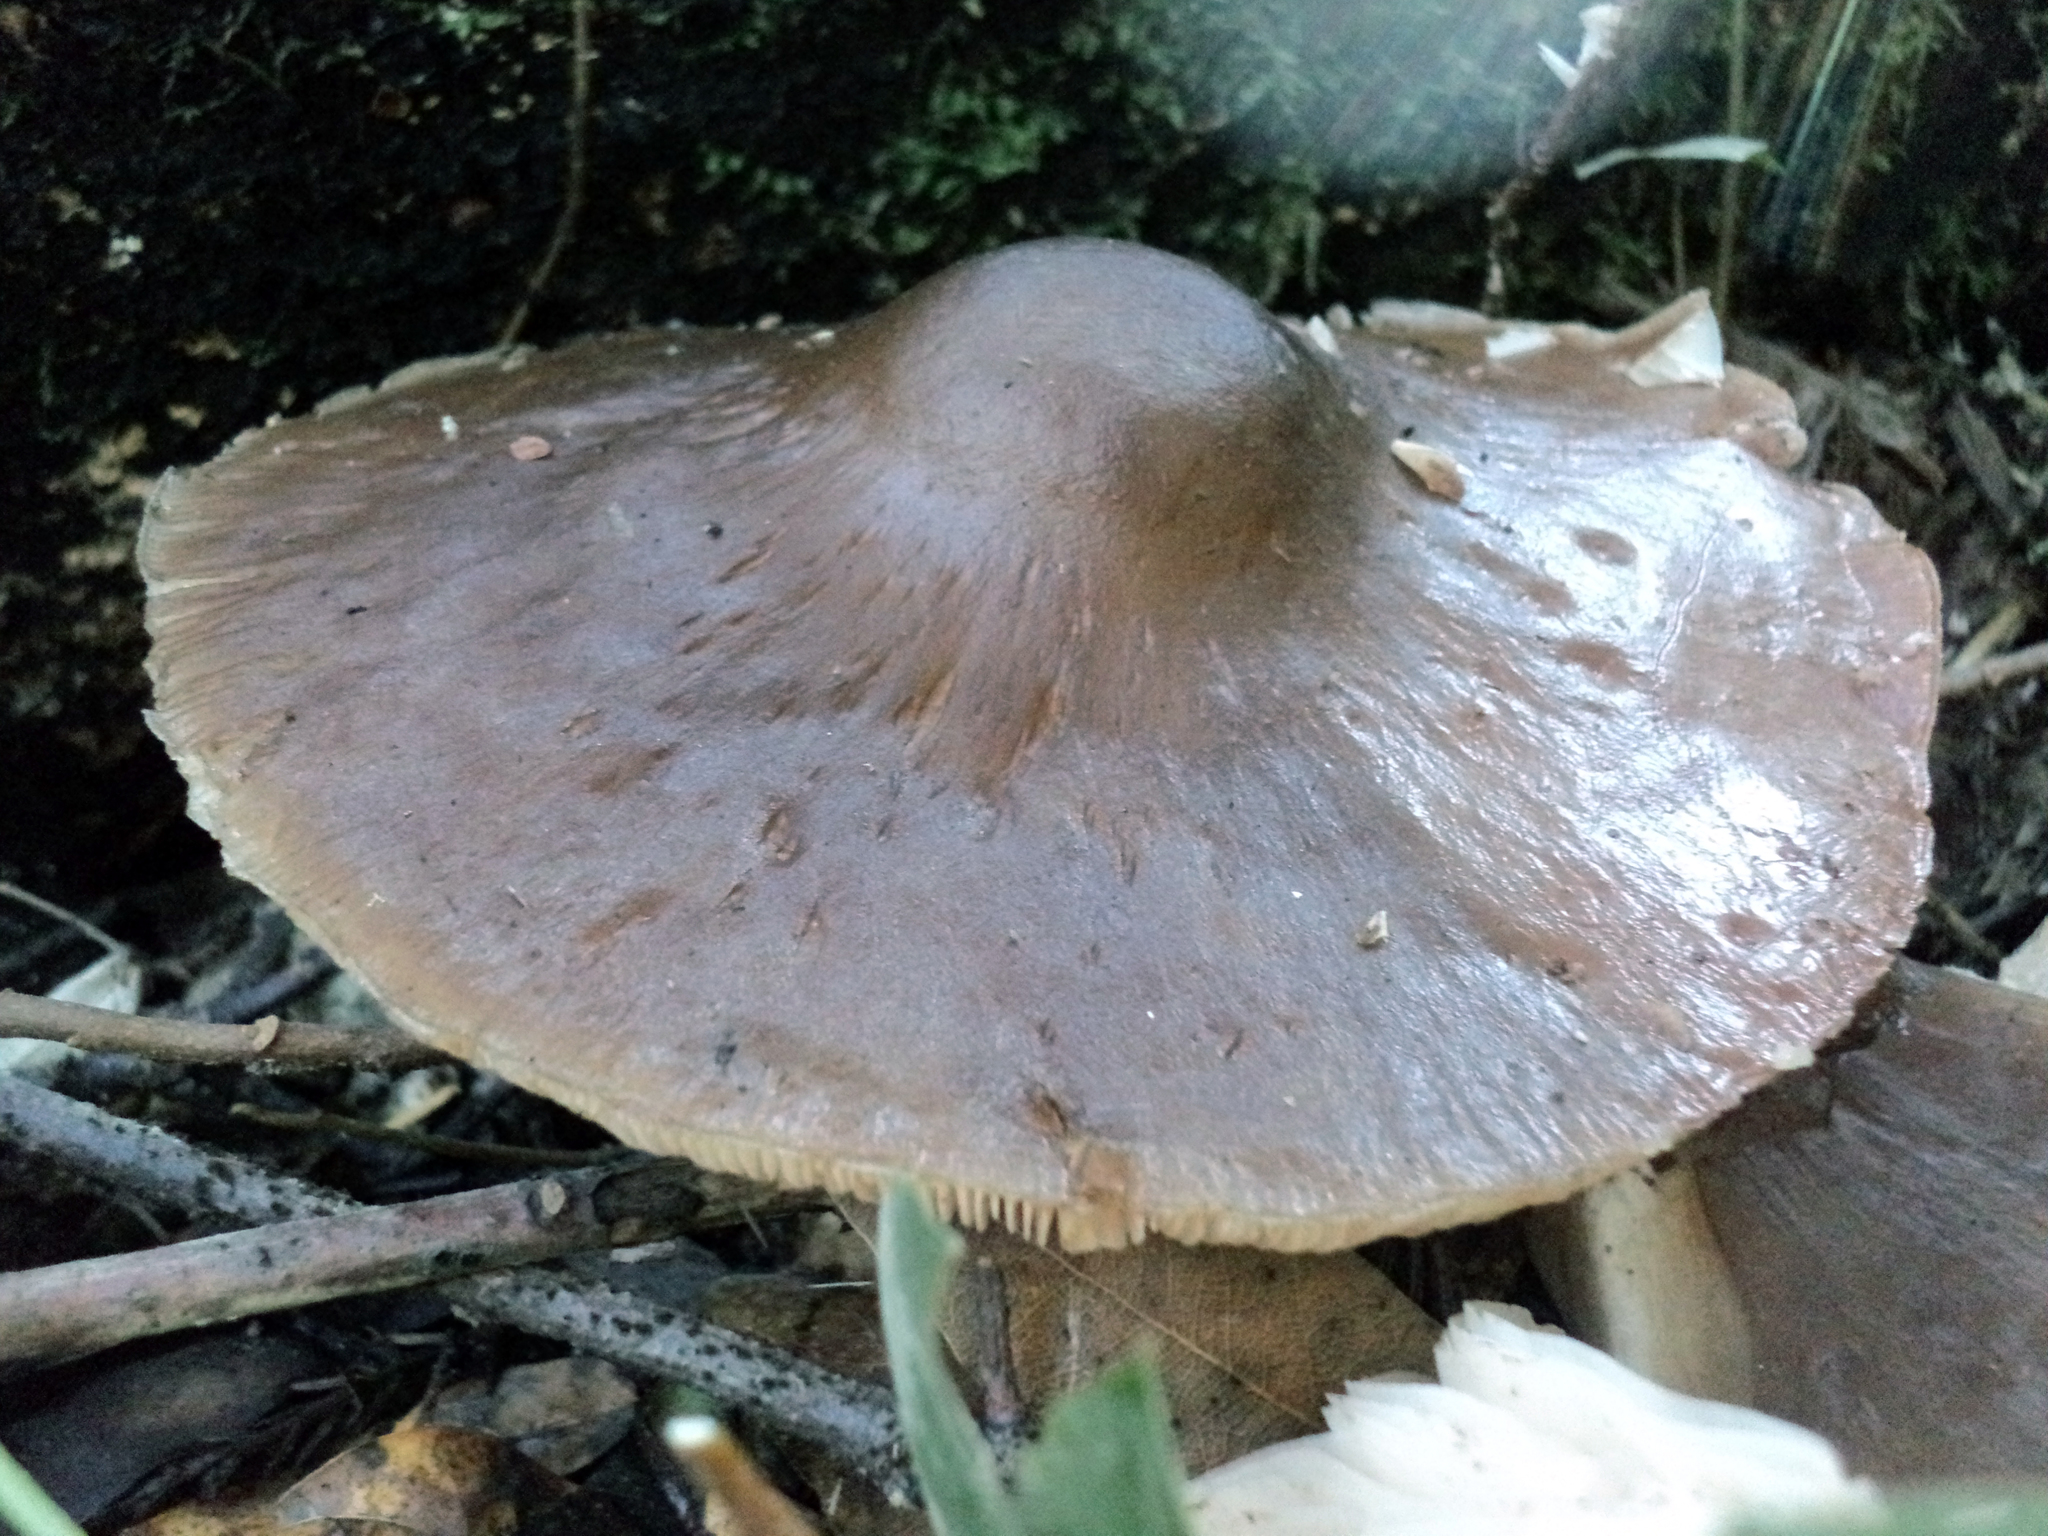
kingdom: Fungi
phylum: Basidiomycota
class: Agaricomycetes
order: Agaricales
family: Pluteaceae
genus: Pluteus
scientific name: Pluteus exilis
